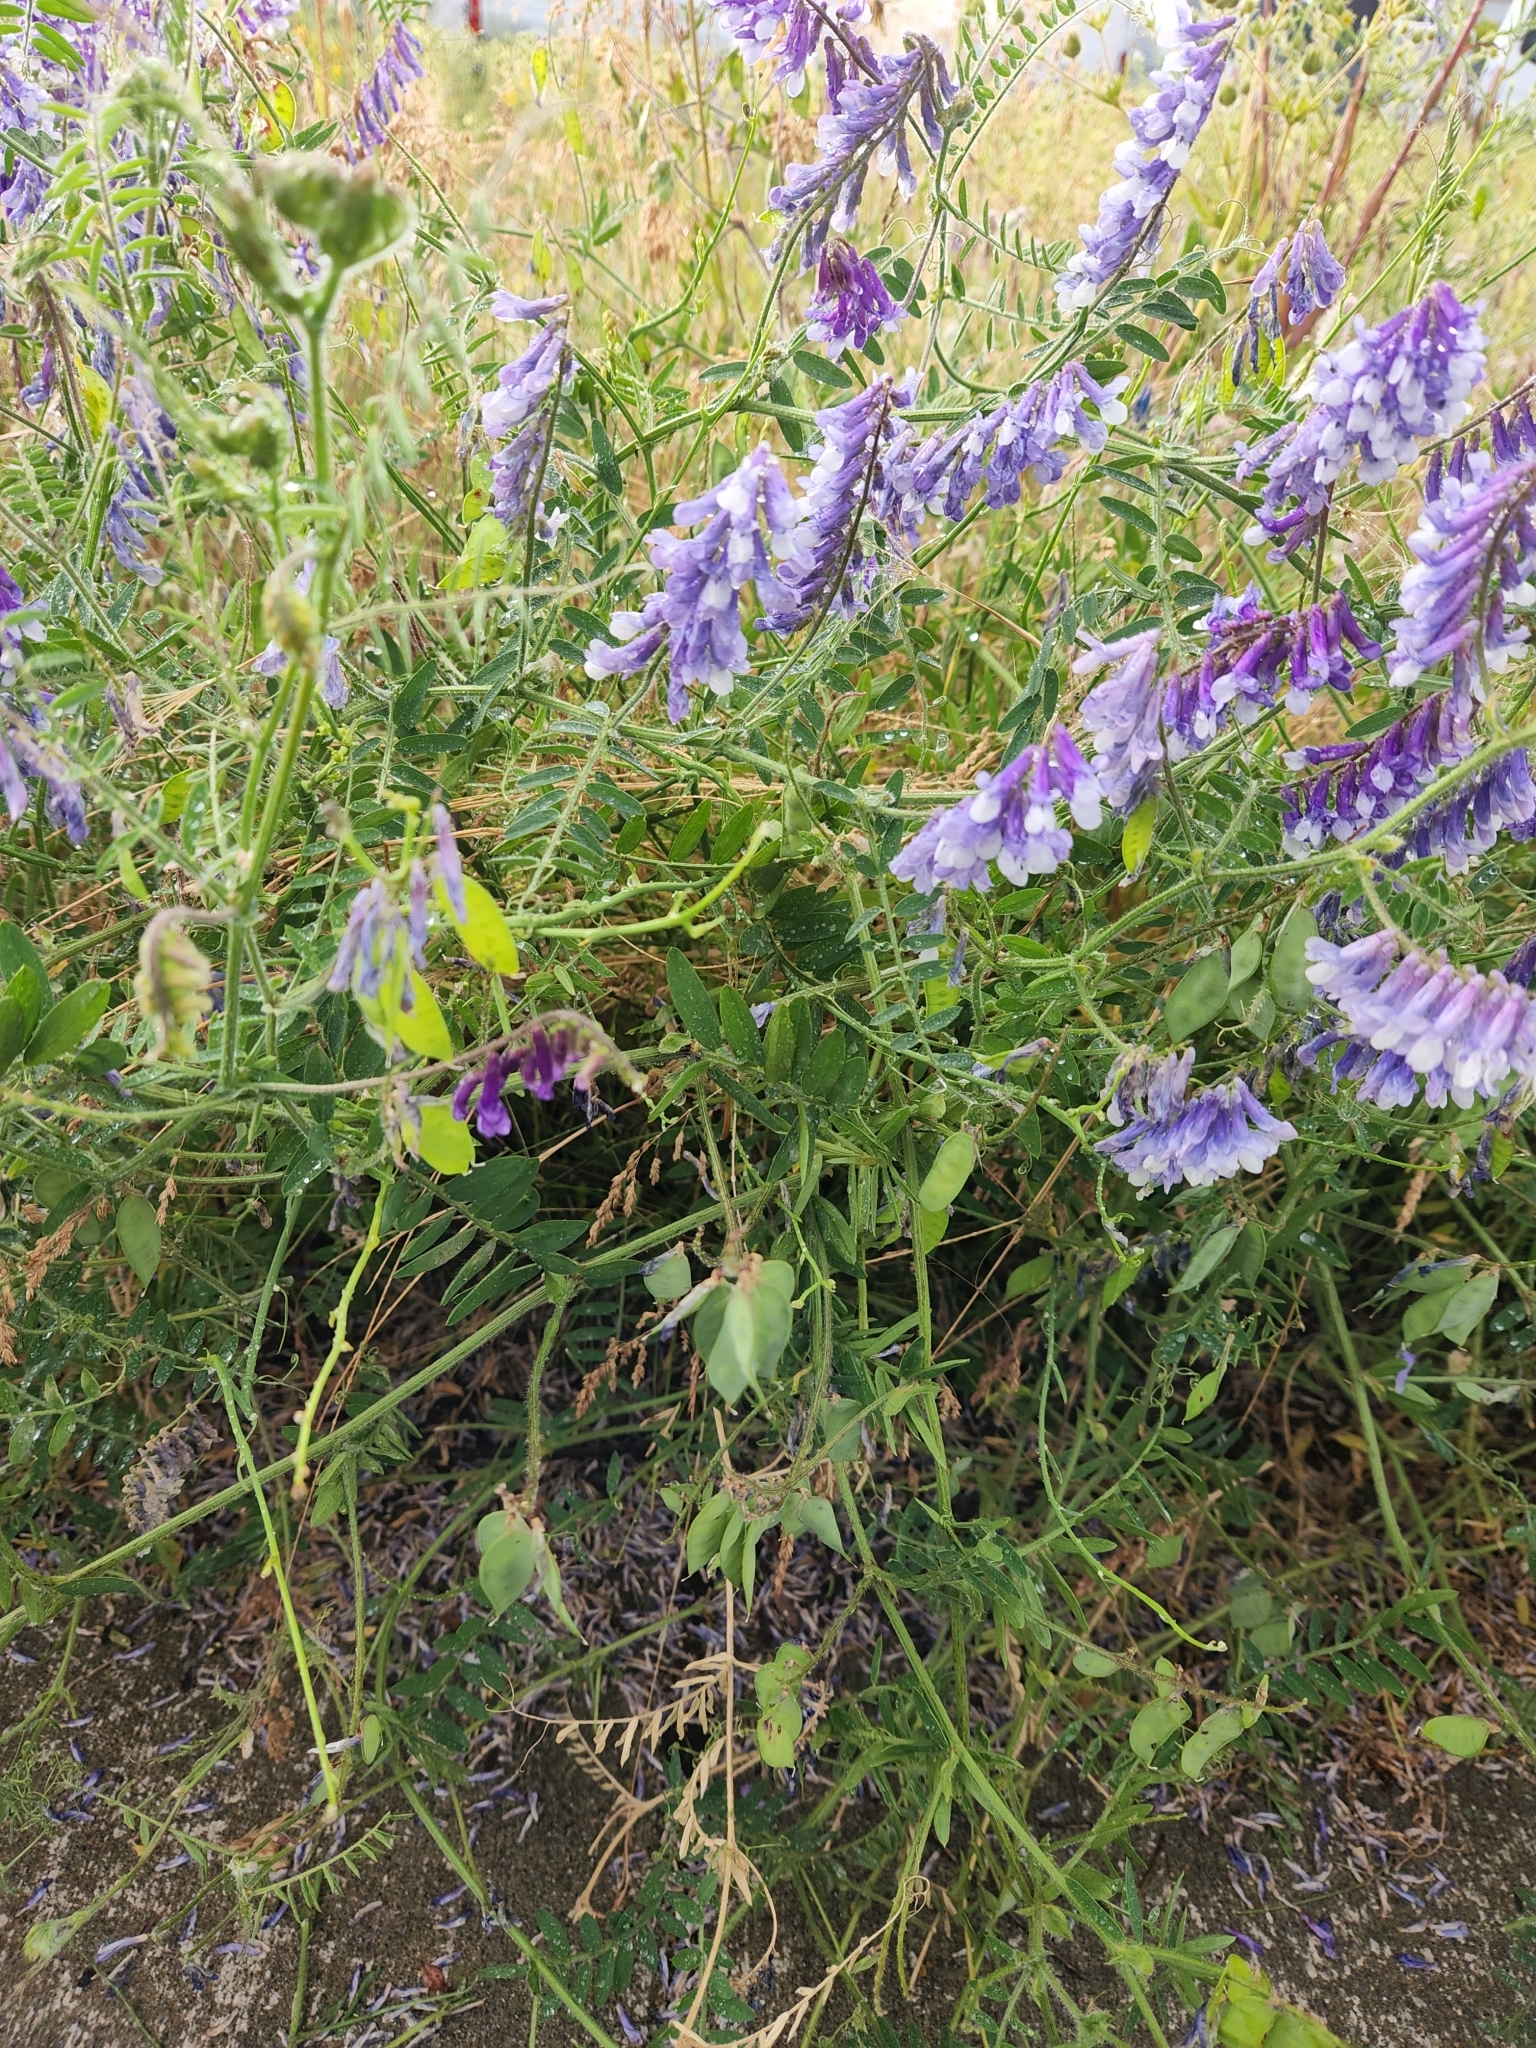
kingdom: Plantae
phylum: Tracheophyta
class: Magnoliopsida
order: Fabales
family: Fabaceae
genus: Vicia
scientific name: Vicia villosa
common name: Fodder vetch
